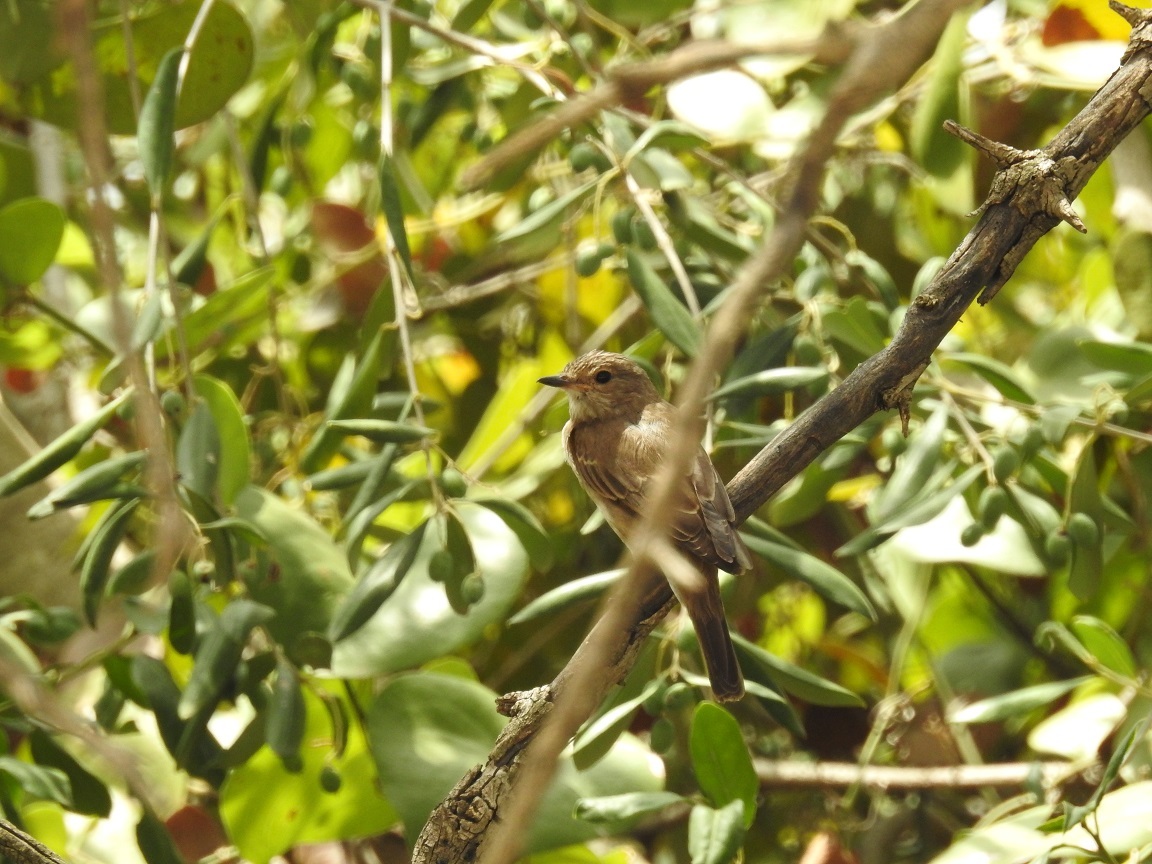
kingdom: Animalia
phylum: Chordata
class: Aves
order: Passeriformes
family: Muscicapidae
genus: Muscicapa
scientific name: Muscicapa striata
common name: Spotted flycatcher
